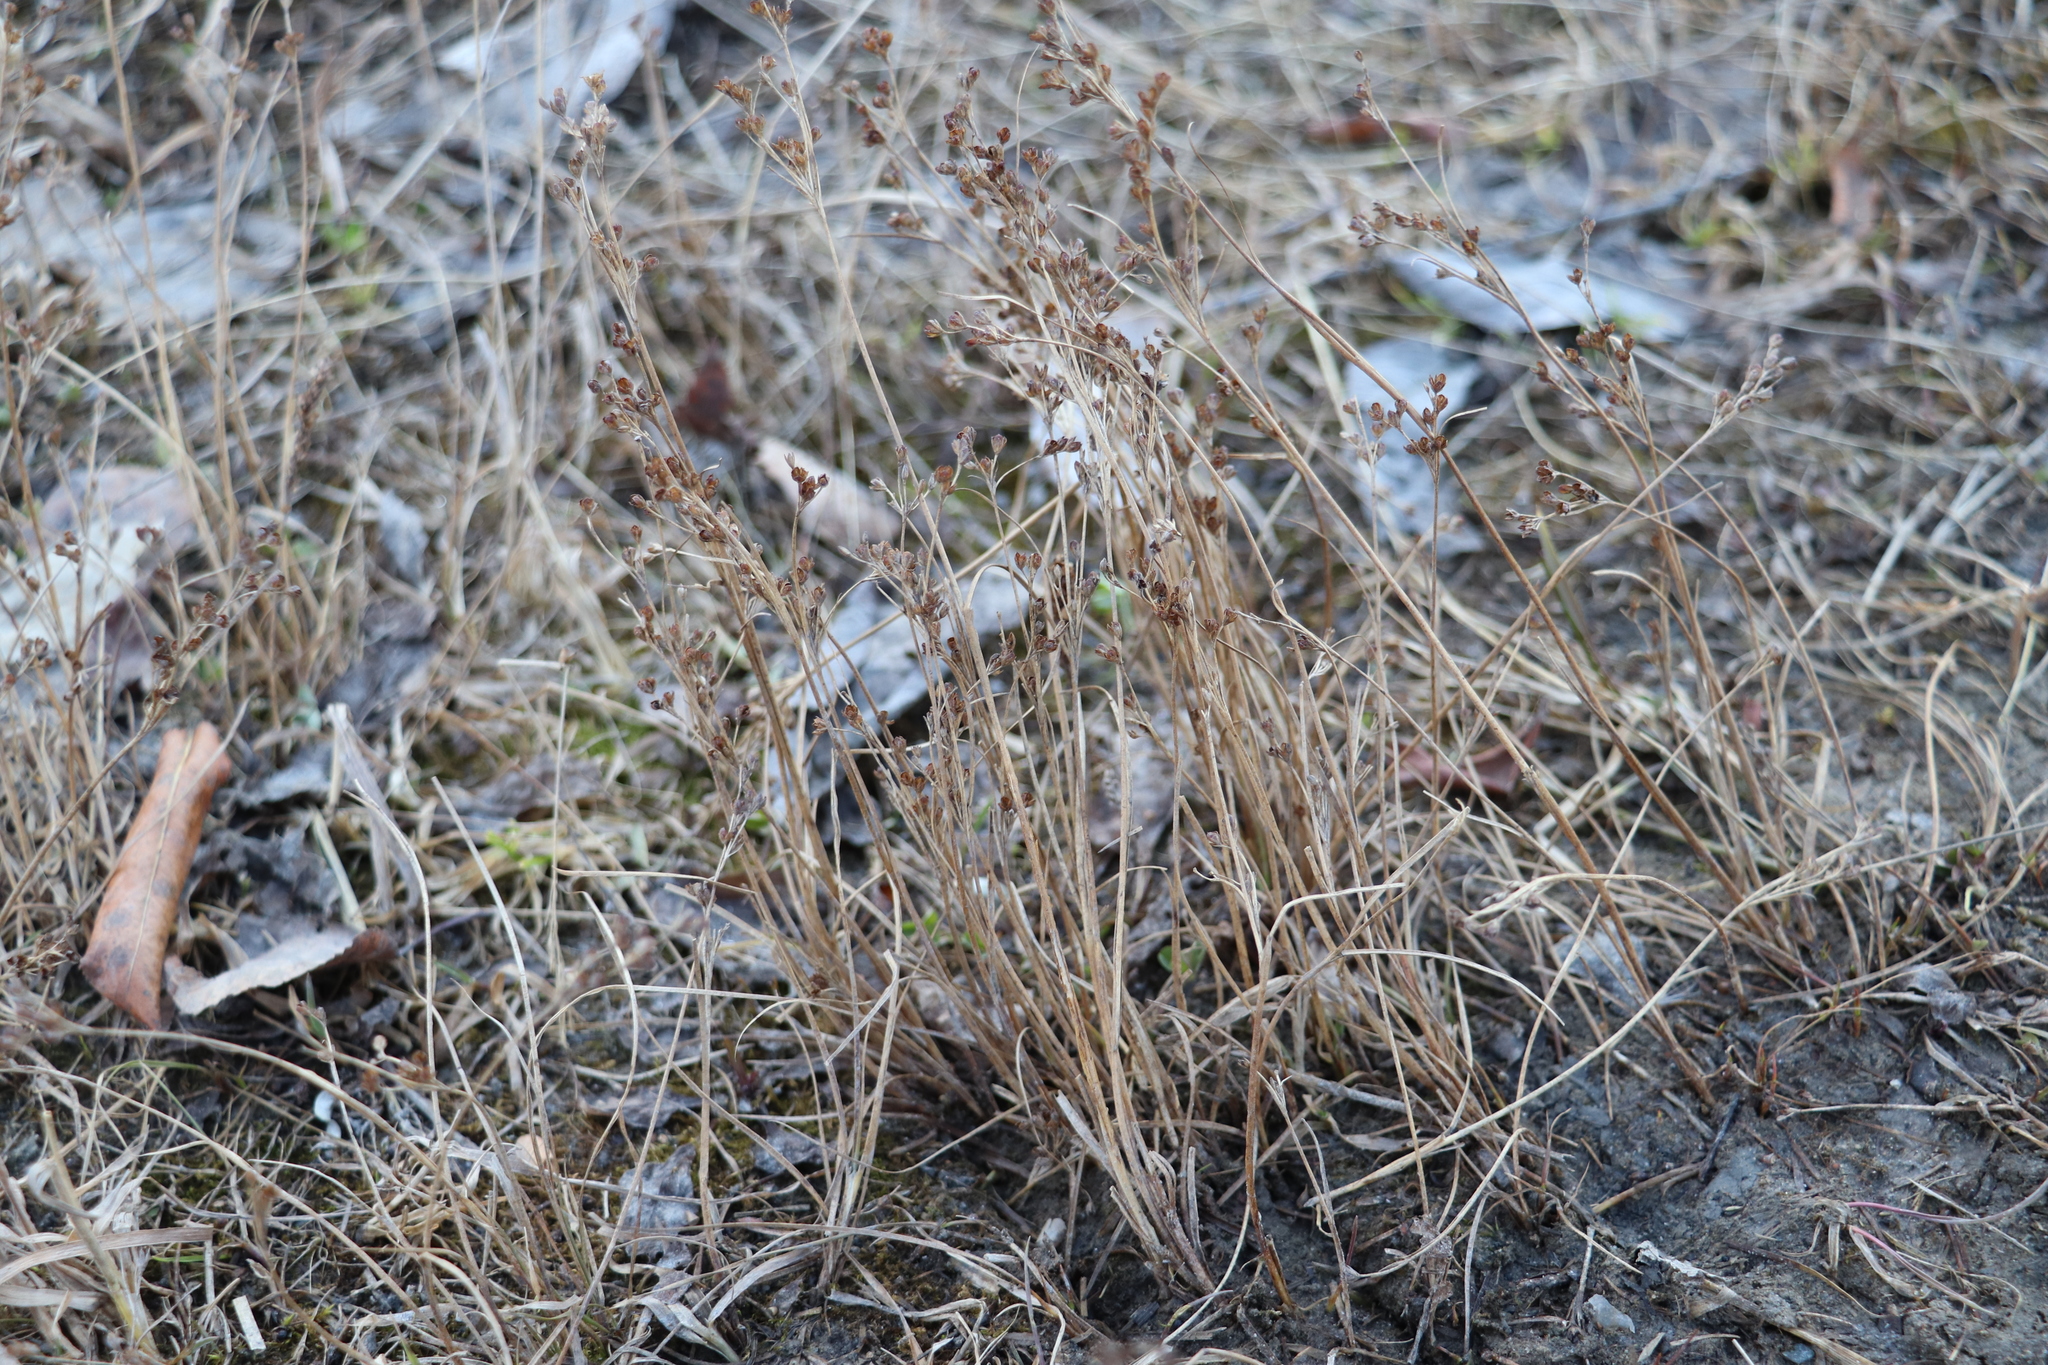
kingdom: Plantae
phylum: Tracheophyta
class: Liliopsida
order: Poales
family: Juncaceae
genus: Juncus
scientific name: Juncus bufonius
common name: Toad rush
